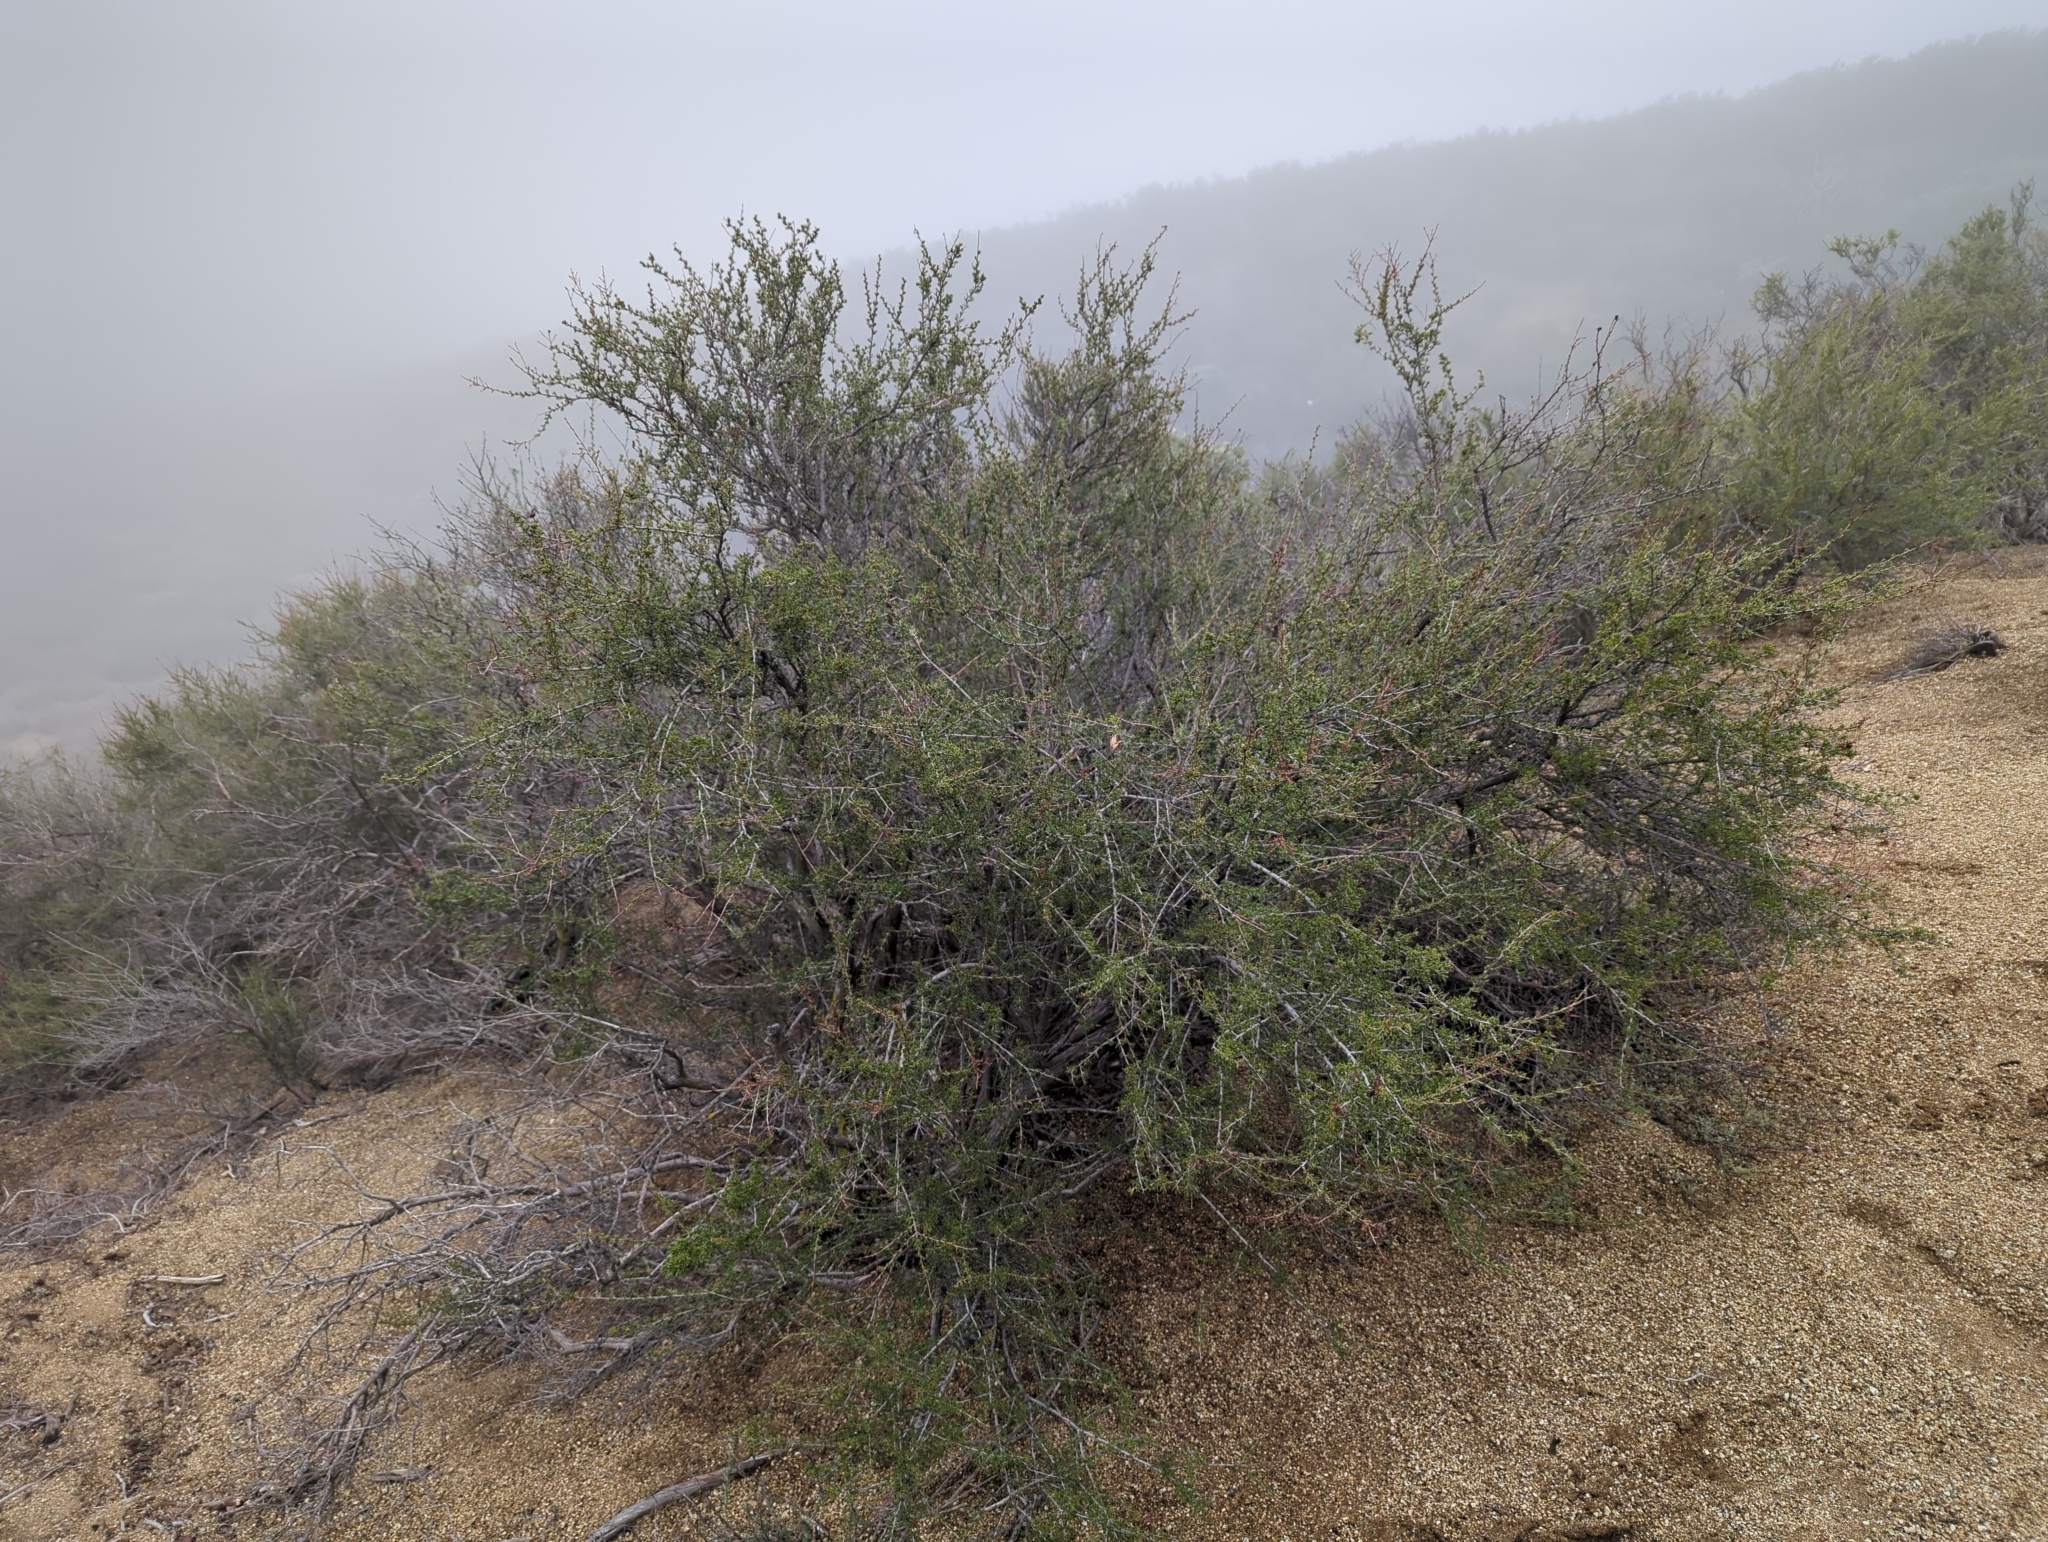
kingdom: Plantae
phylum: Tracheophyta
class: Magnoliopsida
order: Rosales
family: Rosaceae
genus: Adenostoma
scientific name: Adenostoma fasciculatum
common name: Chamise
